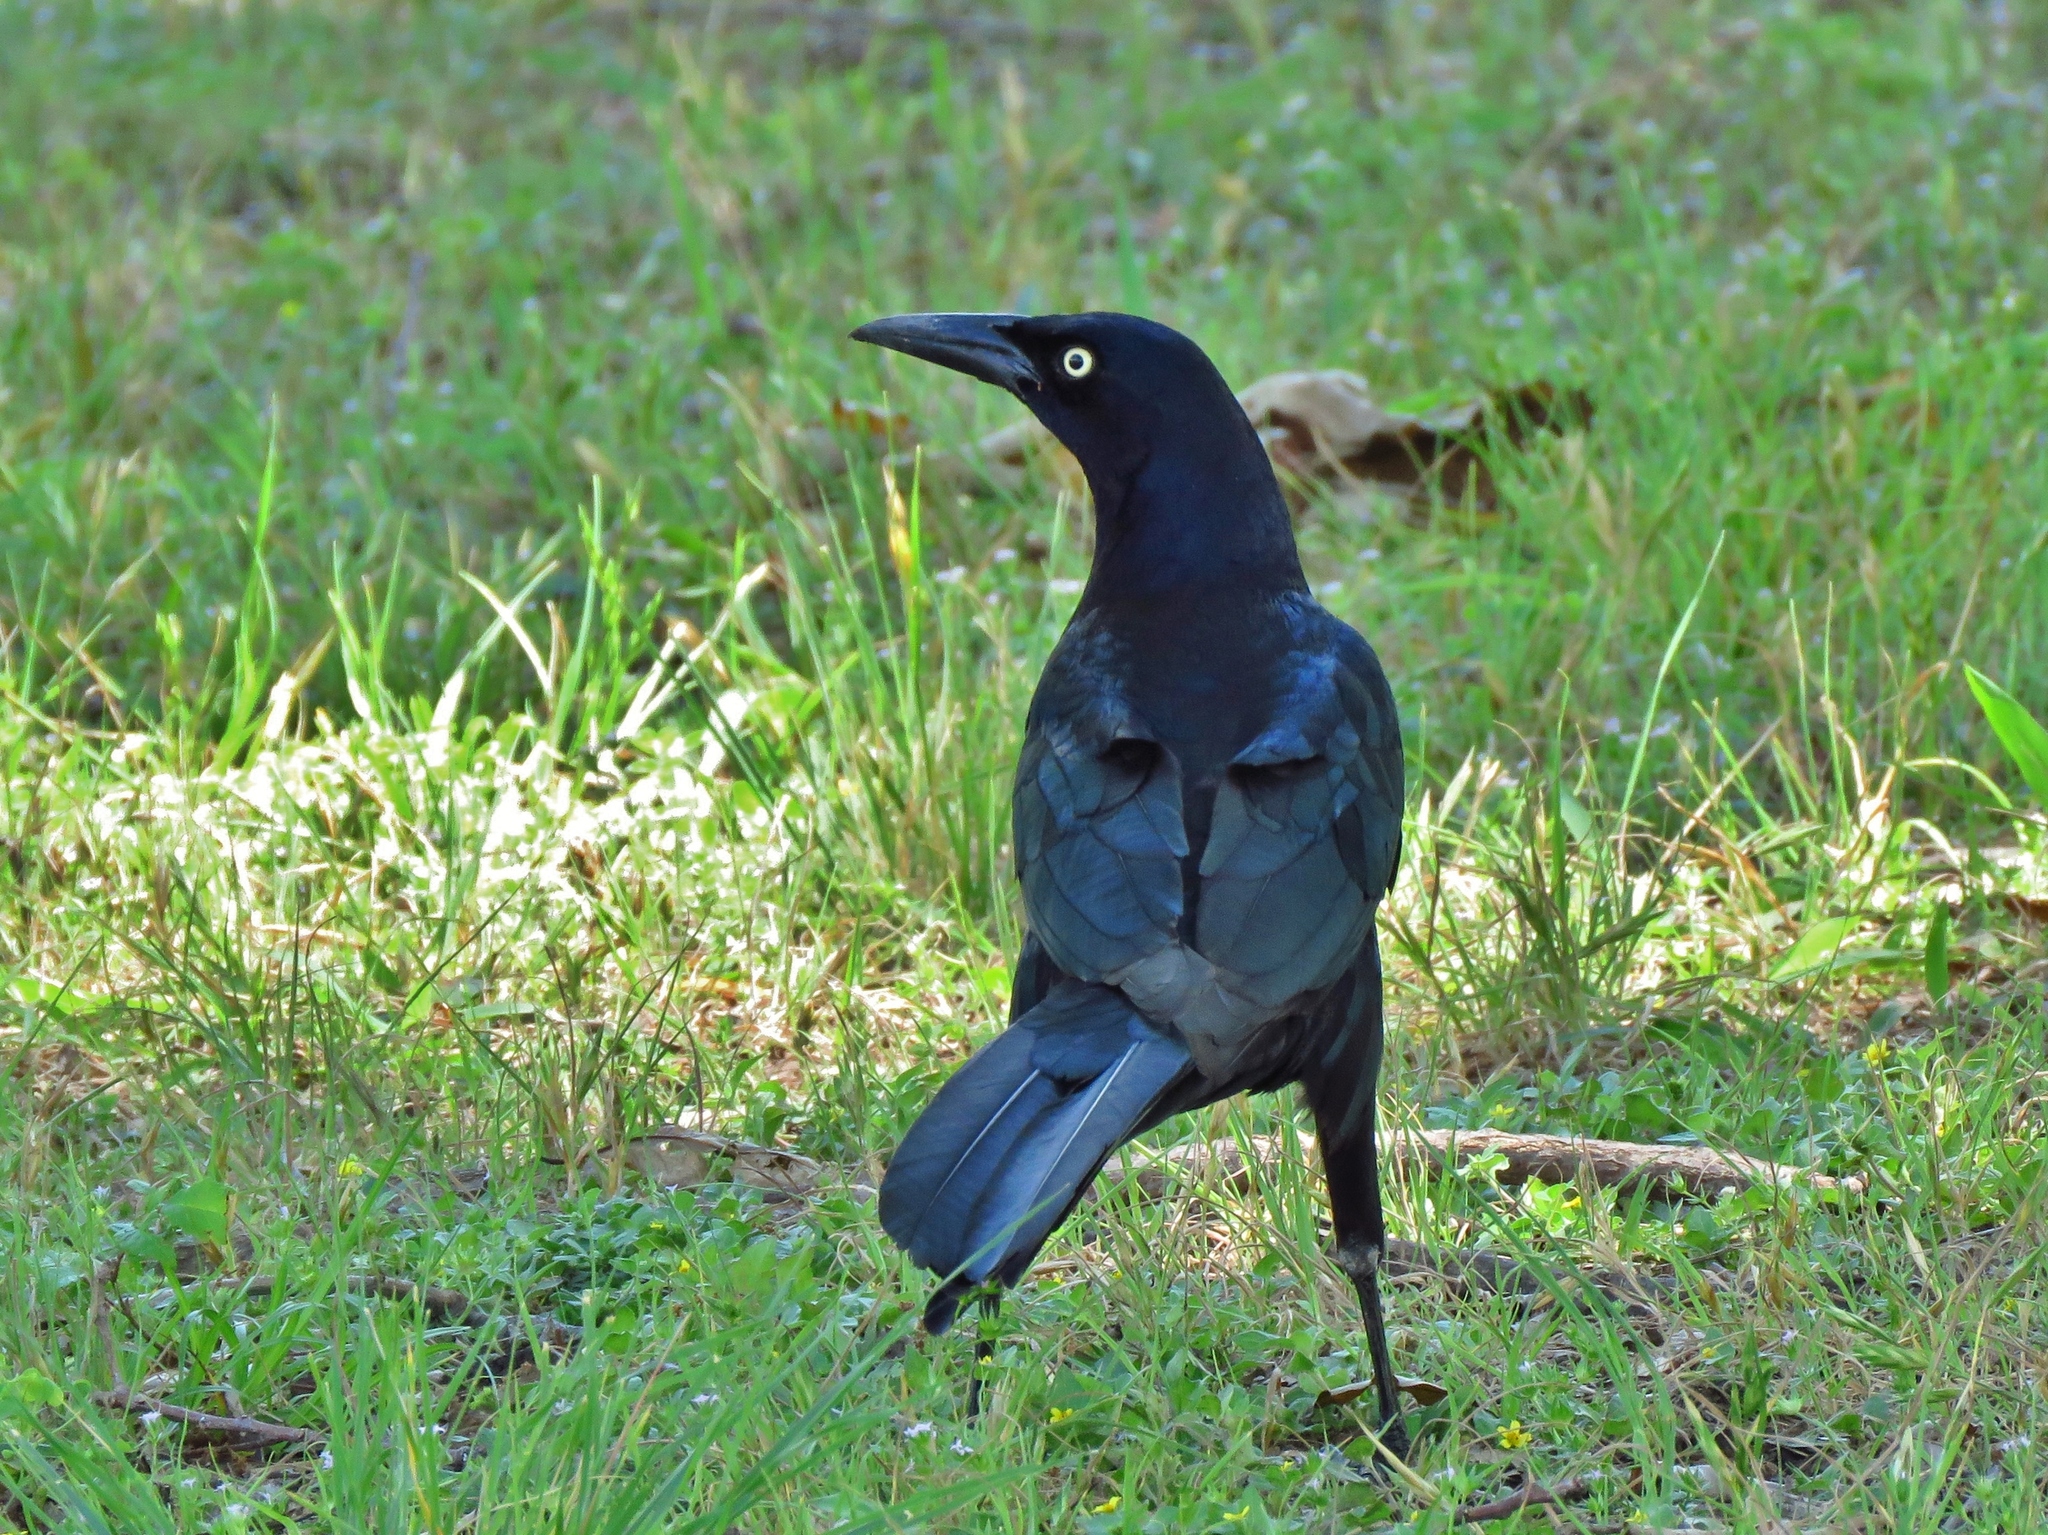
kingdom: Animalia
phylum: Chordata
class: Aves
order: Passeriformes
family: Icteridae
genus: Quiscalus
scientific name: Quiscalus mexicanus
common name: Great-tailed grackle
